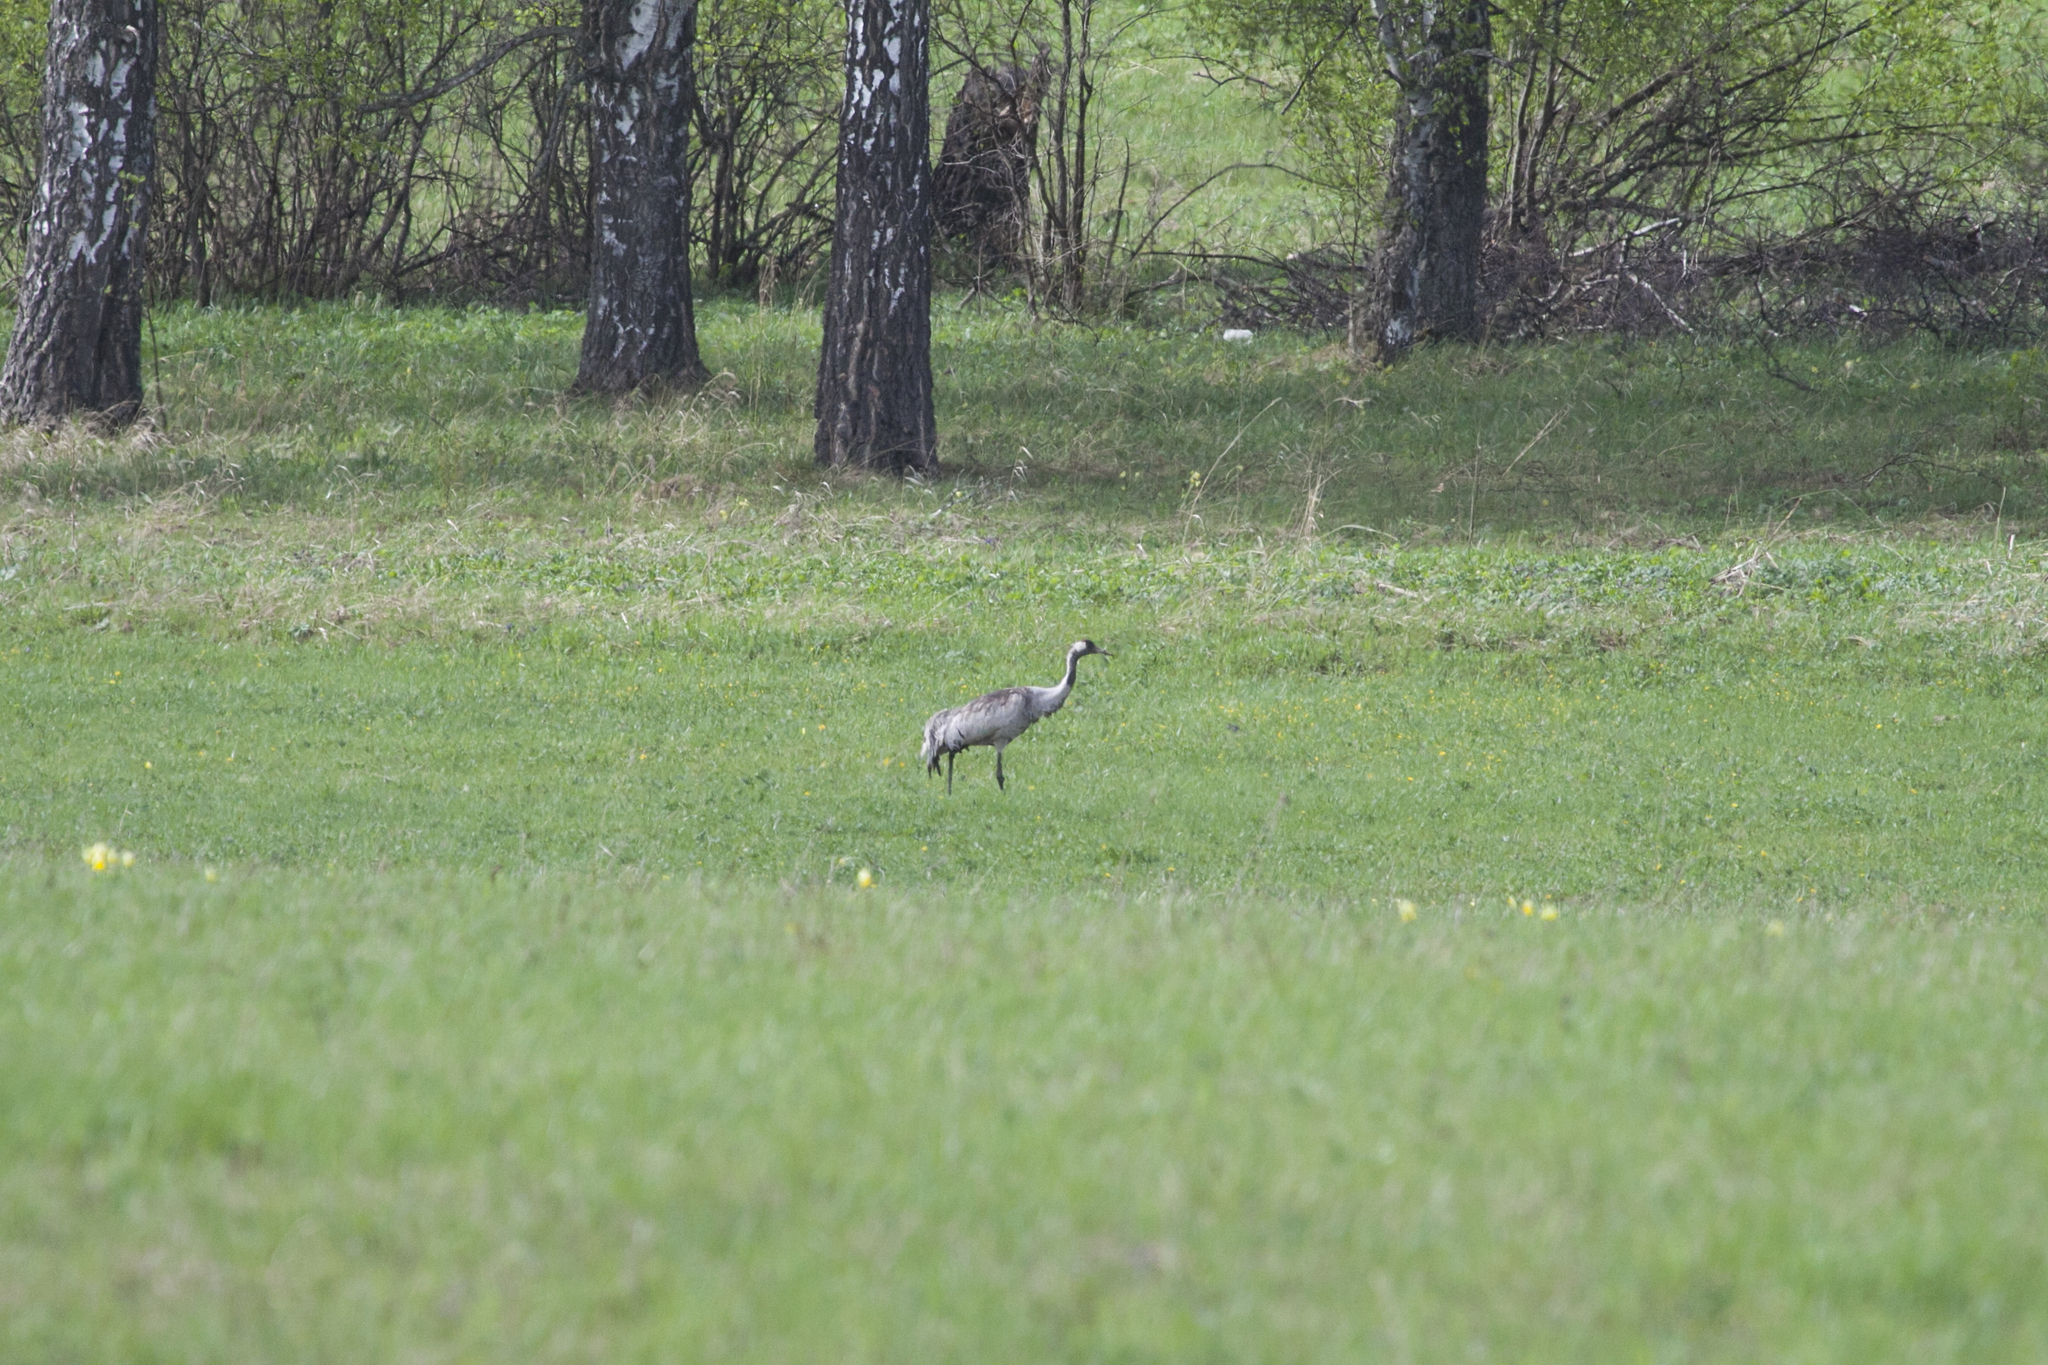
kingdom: Animalia
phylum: Chordata
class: Aves
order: Gruiformes
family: Gruidae
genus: Grus
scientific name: Grus grus
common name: Common crane
